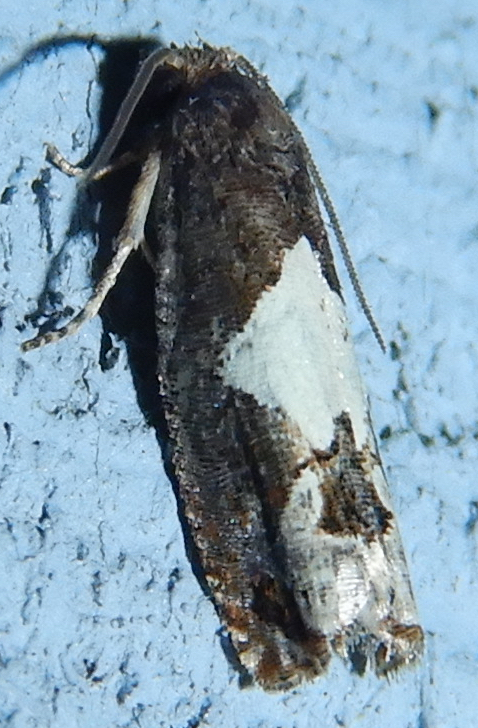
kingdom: Animalia
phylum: Arthropoda
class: Insecta
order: Lepidoptera
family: Tortricidae
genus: Epiblema
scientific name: Epiblema otiosana
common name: Bidens borer moth
